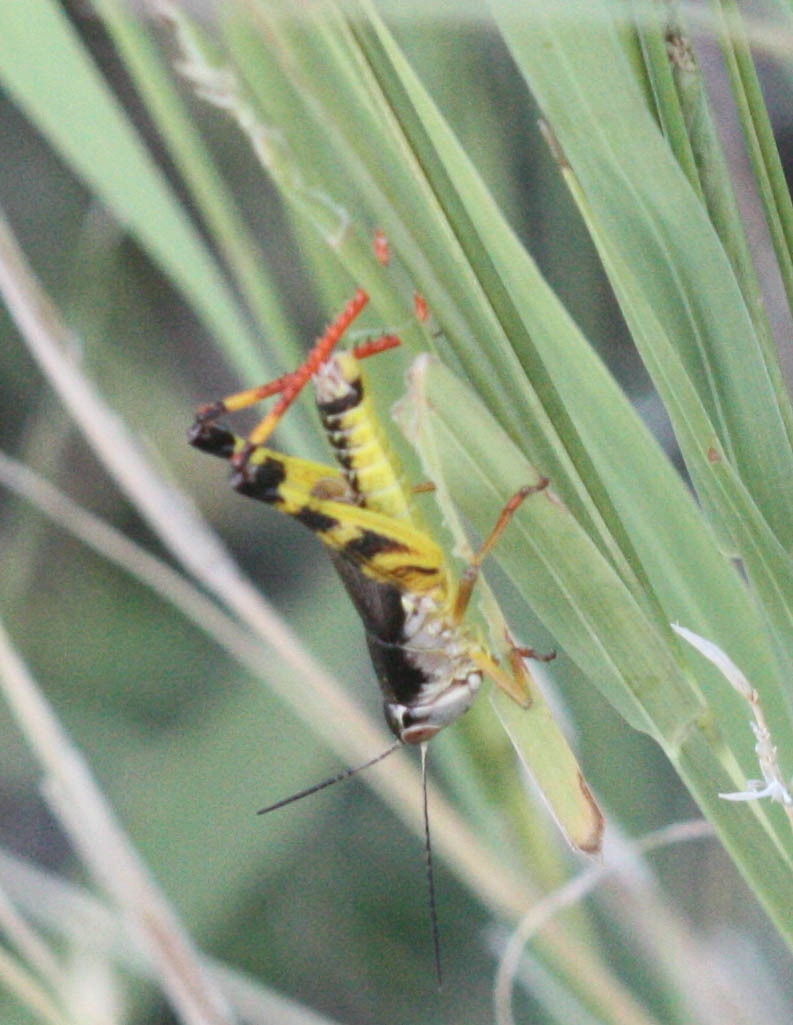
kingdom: Animalia
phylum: Arthropoda
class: Insecta
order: Orthoptera
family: Acrididae
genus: Boopedon
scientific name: Boopedon flaviventris
